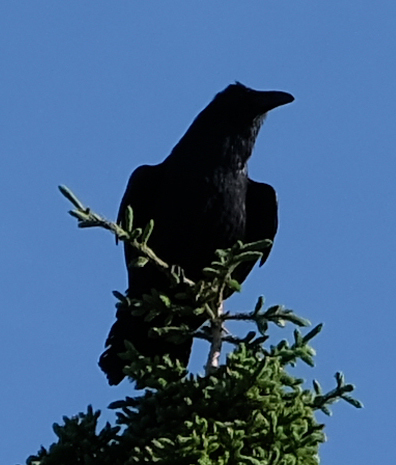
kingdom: Animalia
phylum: Chordata
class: Aves
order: Passeriformes
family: Corvidae
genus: Corvus
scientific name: Corvus corax
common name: Common raven
